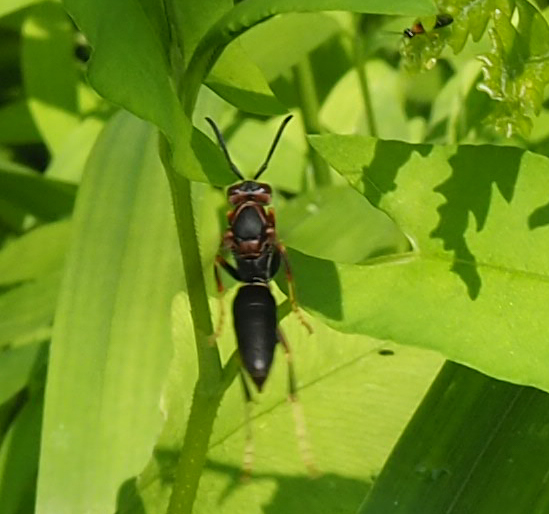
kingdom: Animalia
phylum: Arthropoda
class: Insecta
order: Hymenoptera
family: Eumenidae
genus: Polistes
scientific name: Polistes parametricus
